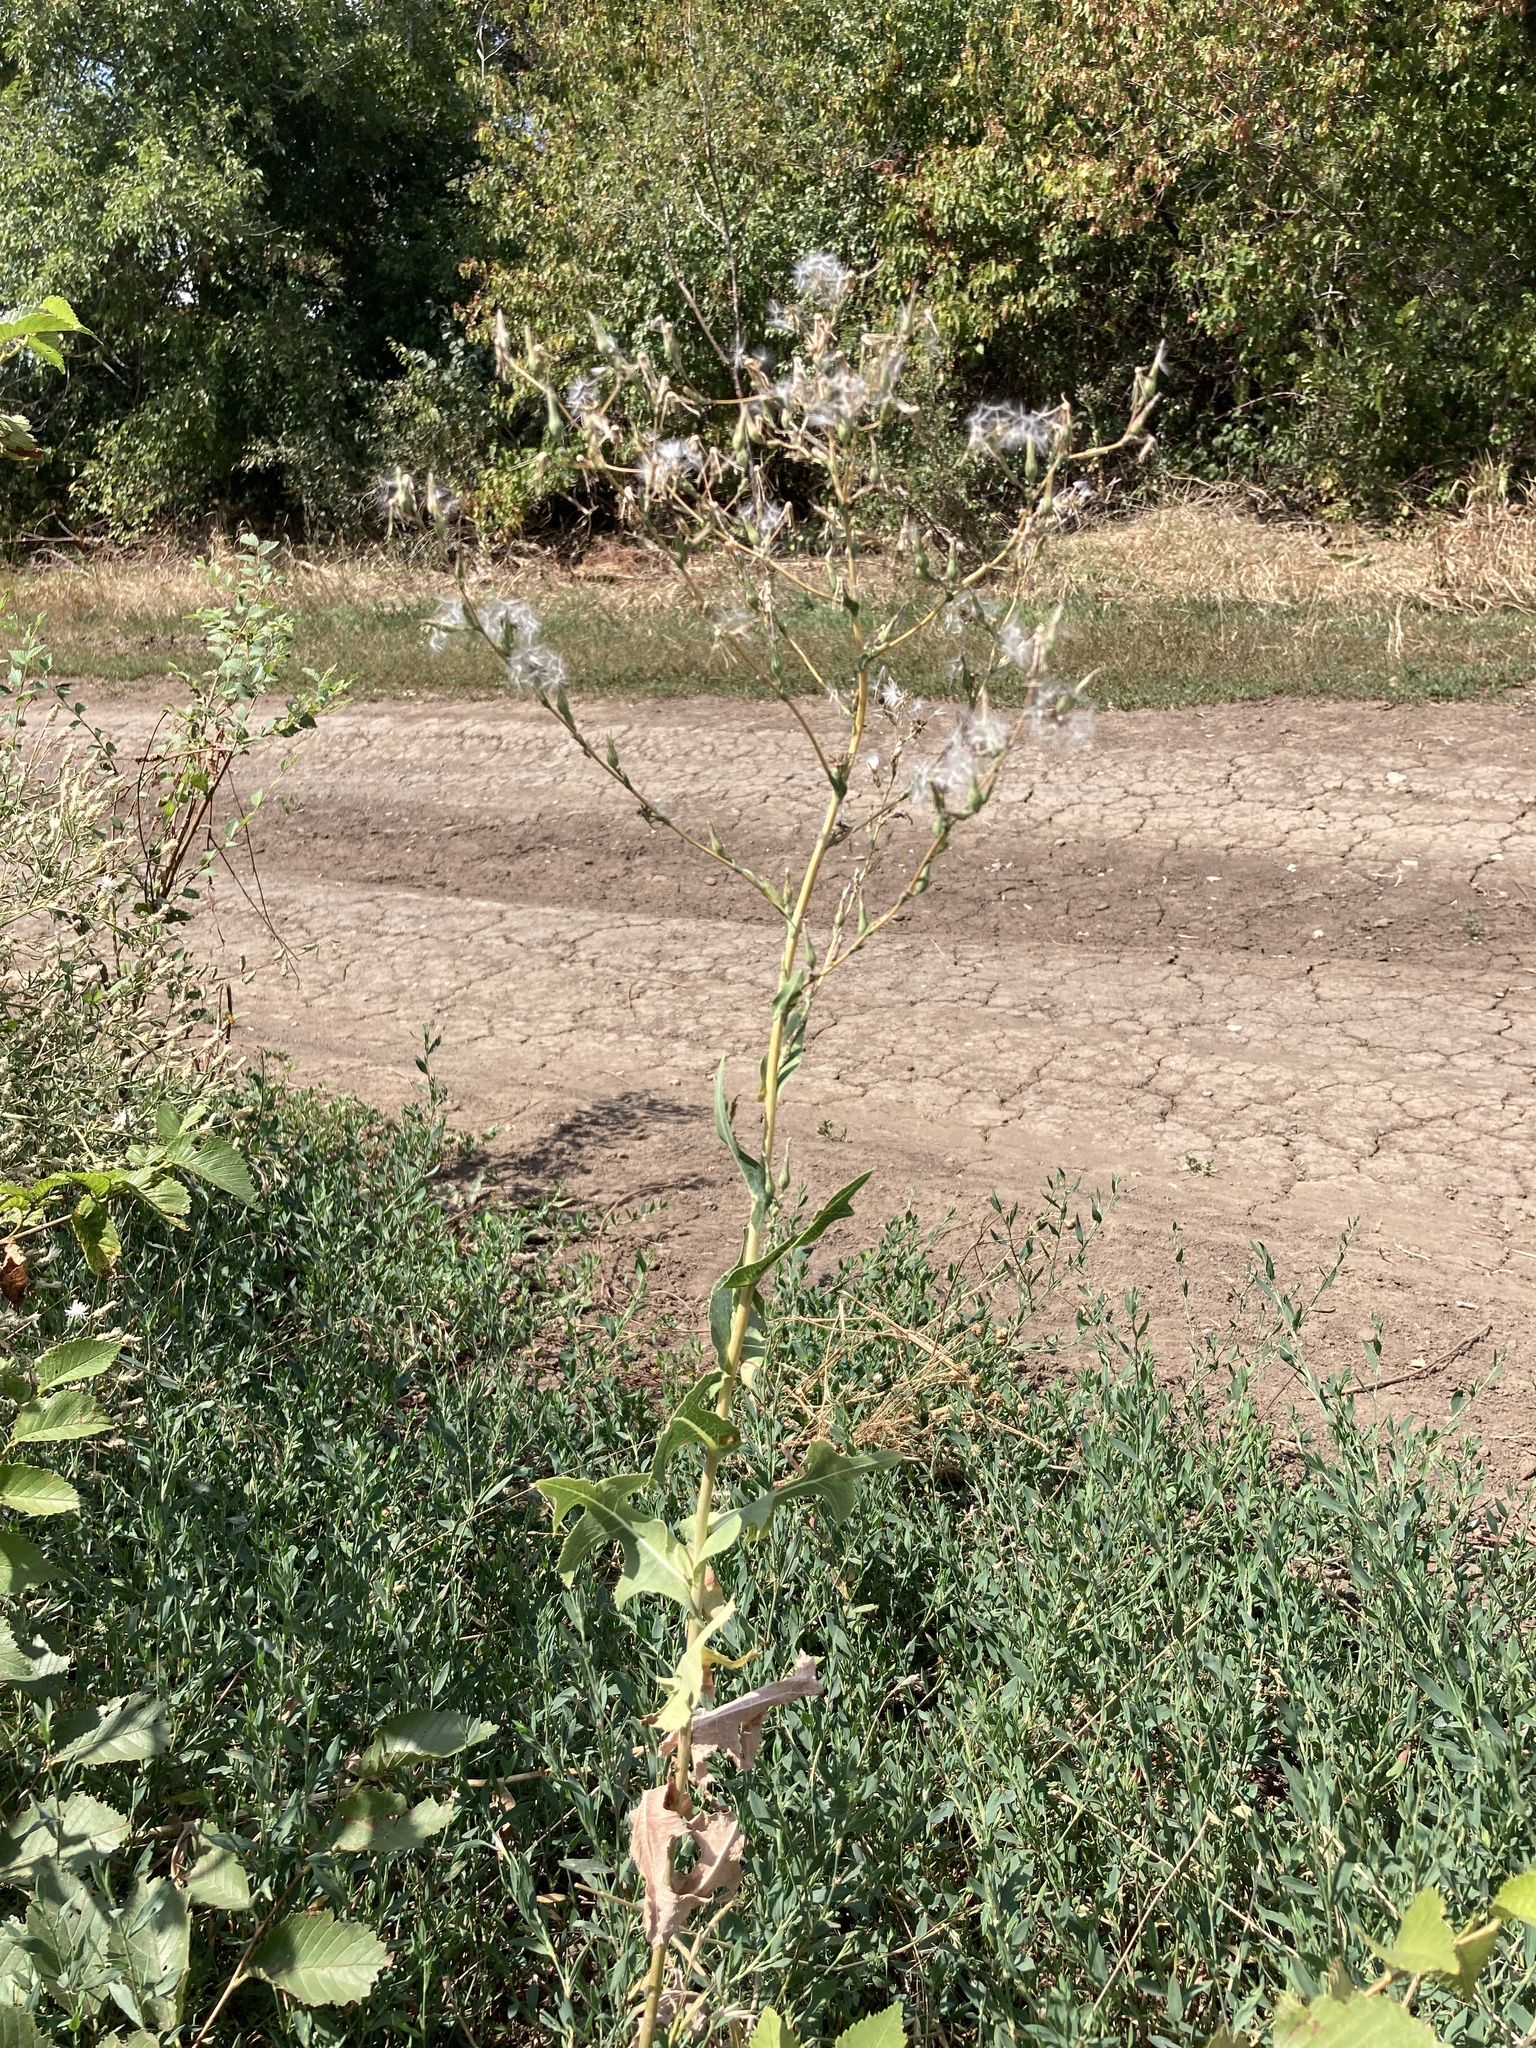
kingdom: Plantae
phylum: Tracheophyta
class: Magnoliopsida
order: Asterales
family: Asteraceae
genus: Lactuca
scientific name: Lactuca serriola
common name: Prickly lettuce
